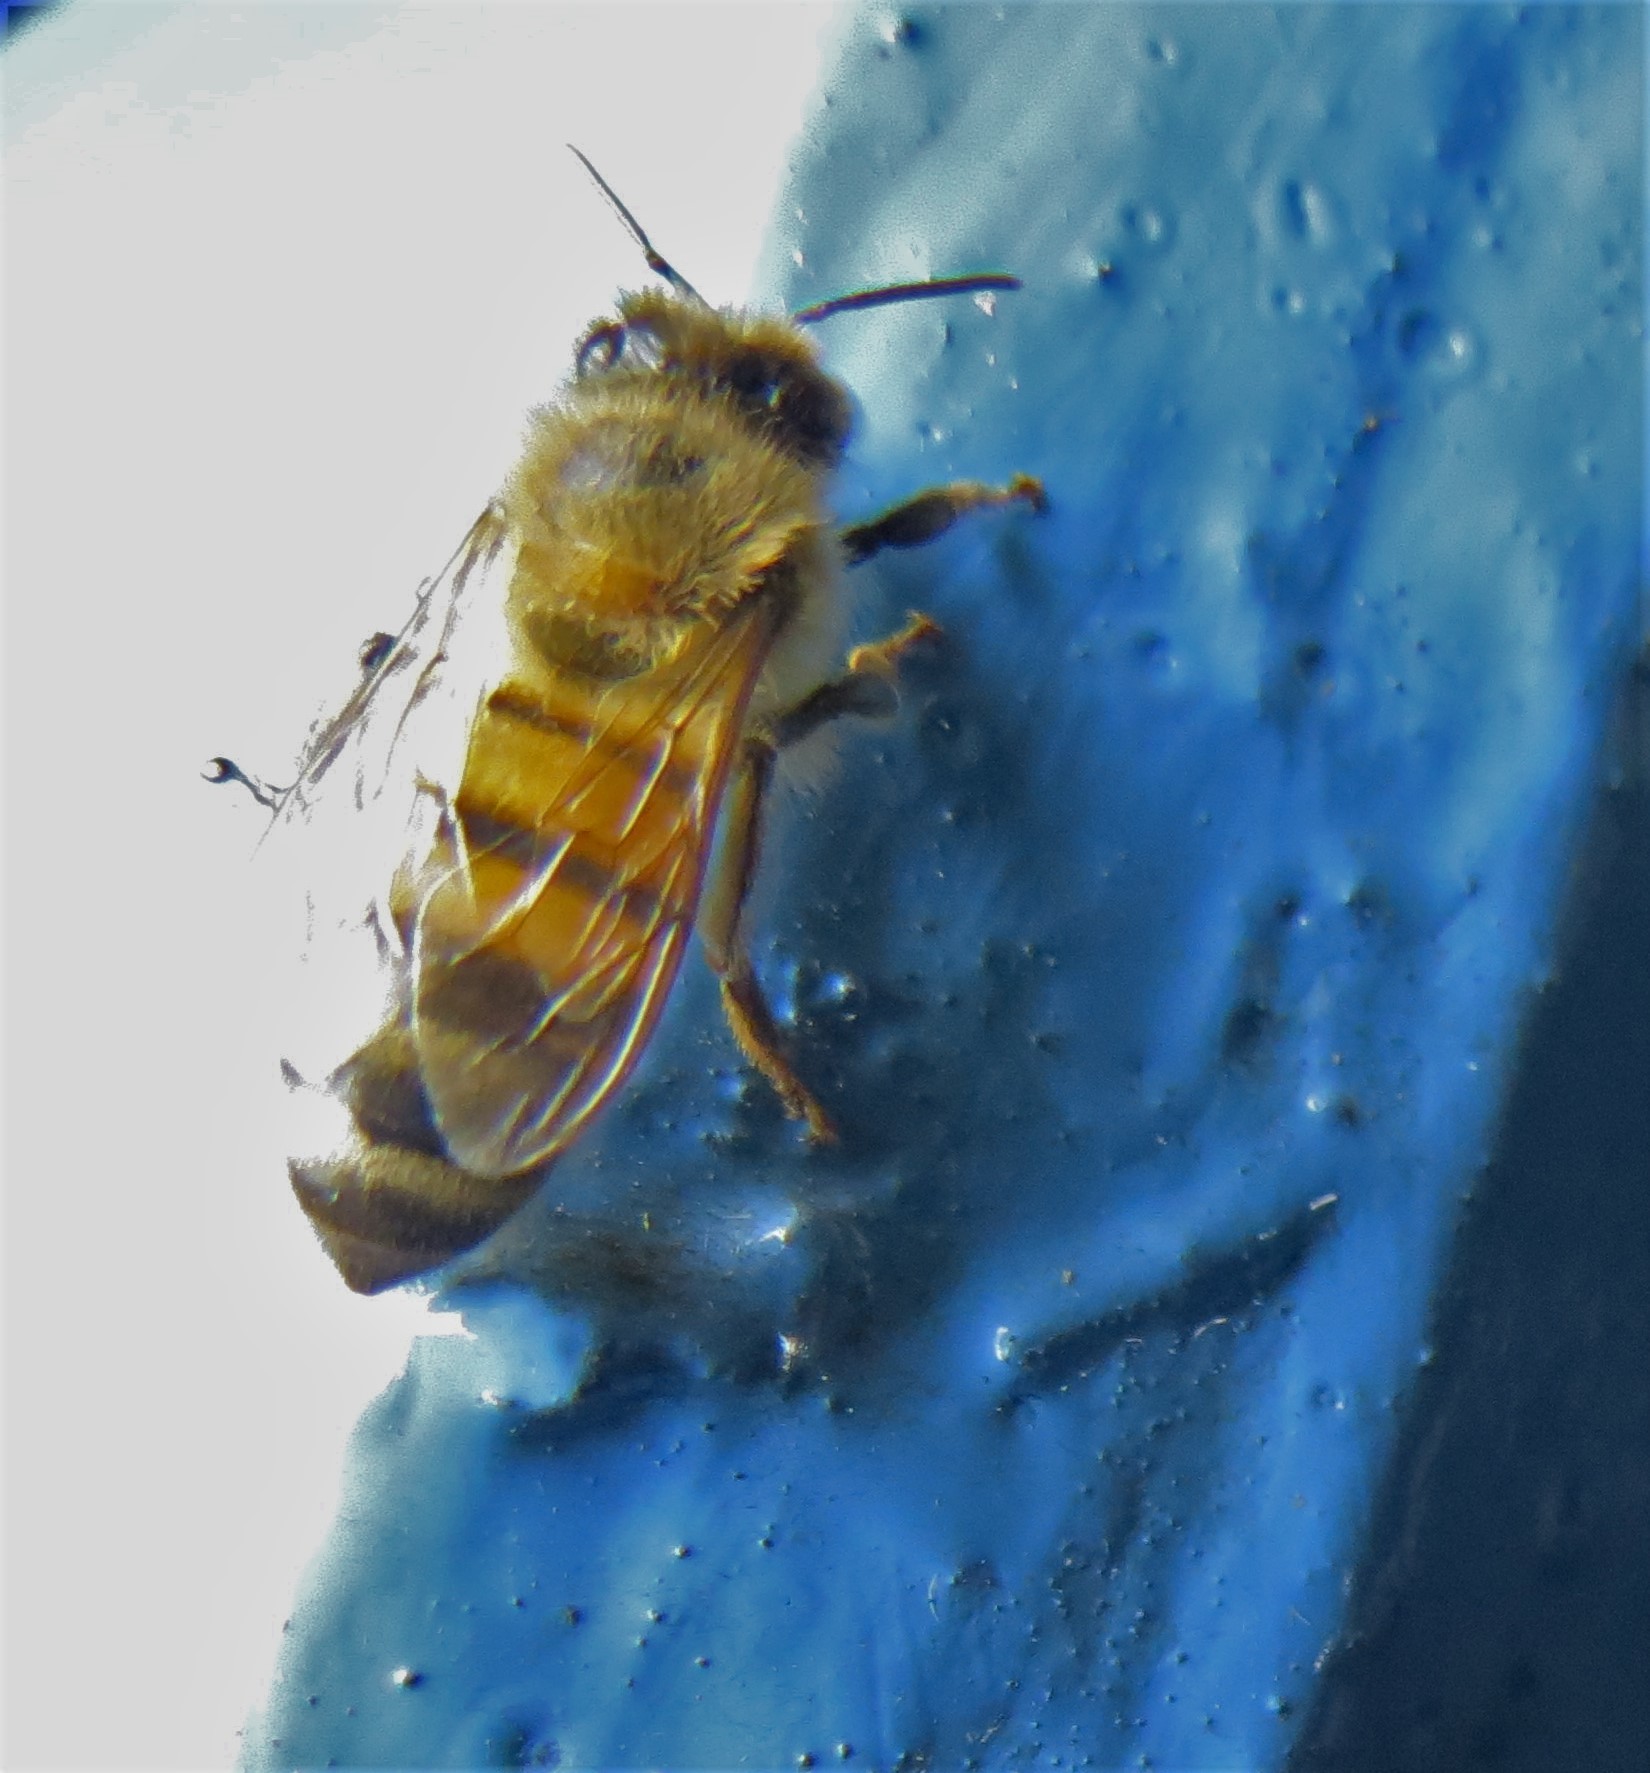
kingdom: Animalia
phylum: Arthropoda
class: Insecta
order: Hymenoptera
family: Apidae
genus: Apis
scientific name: Apis mellifera
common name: Honey bee
